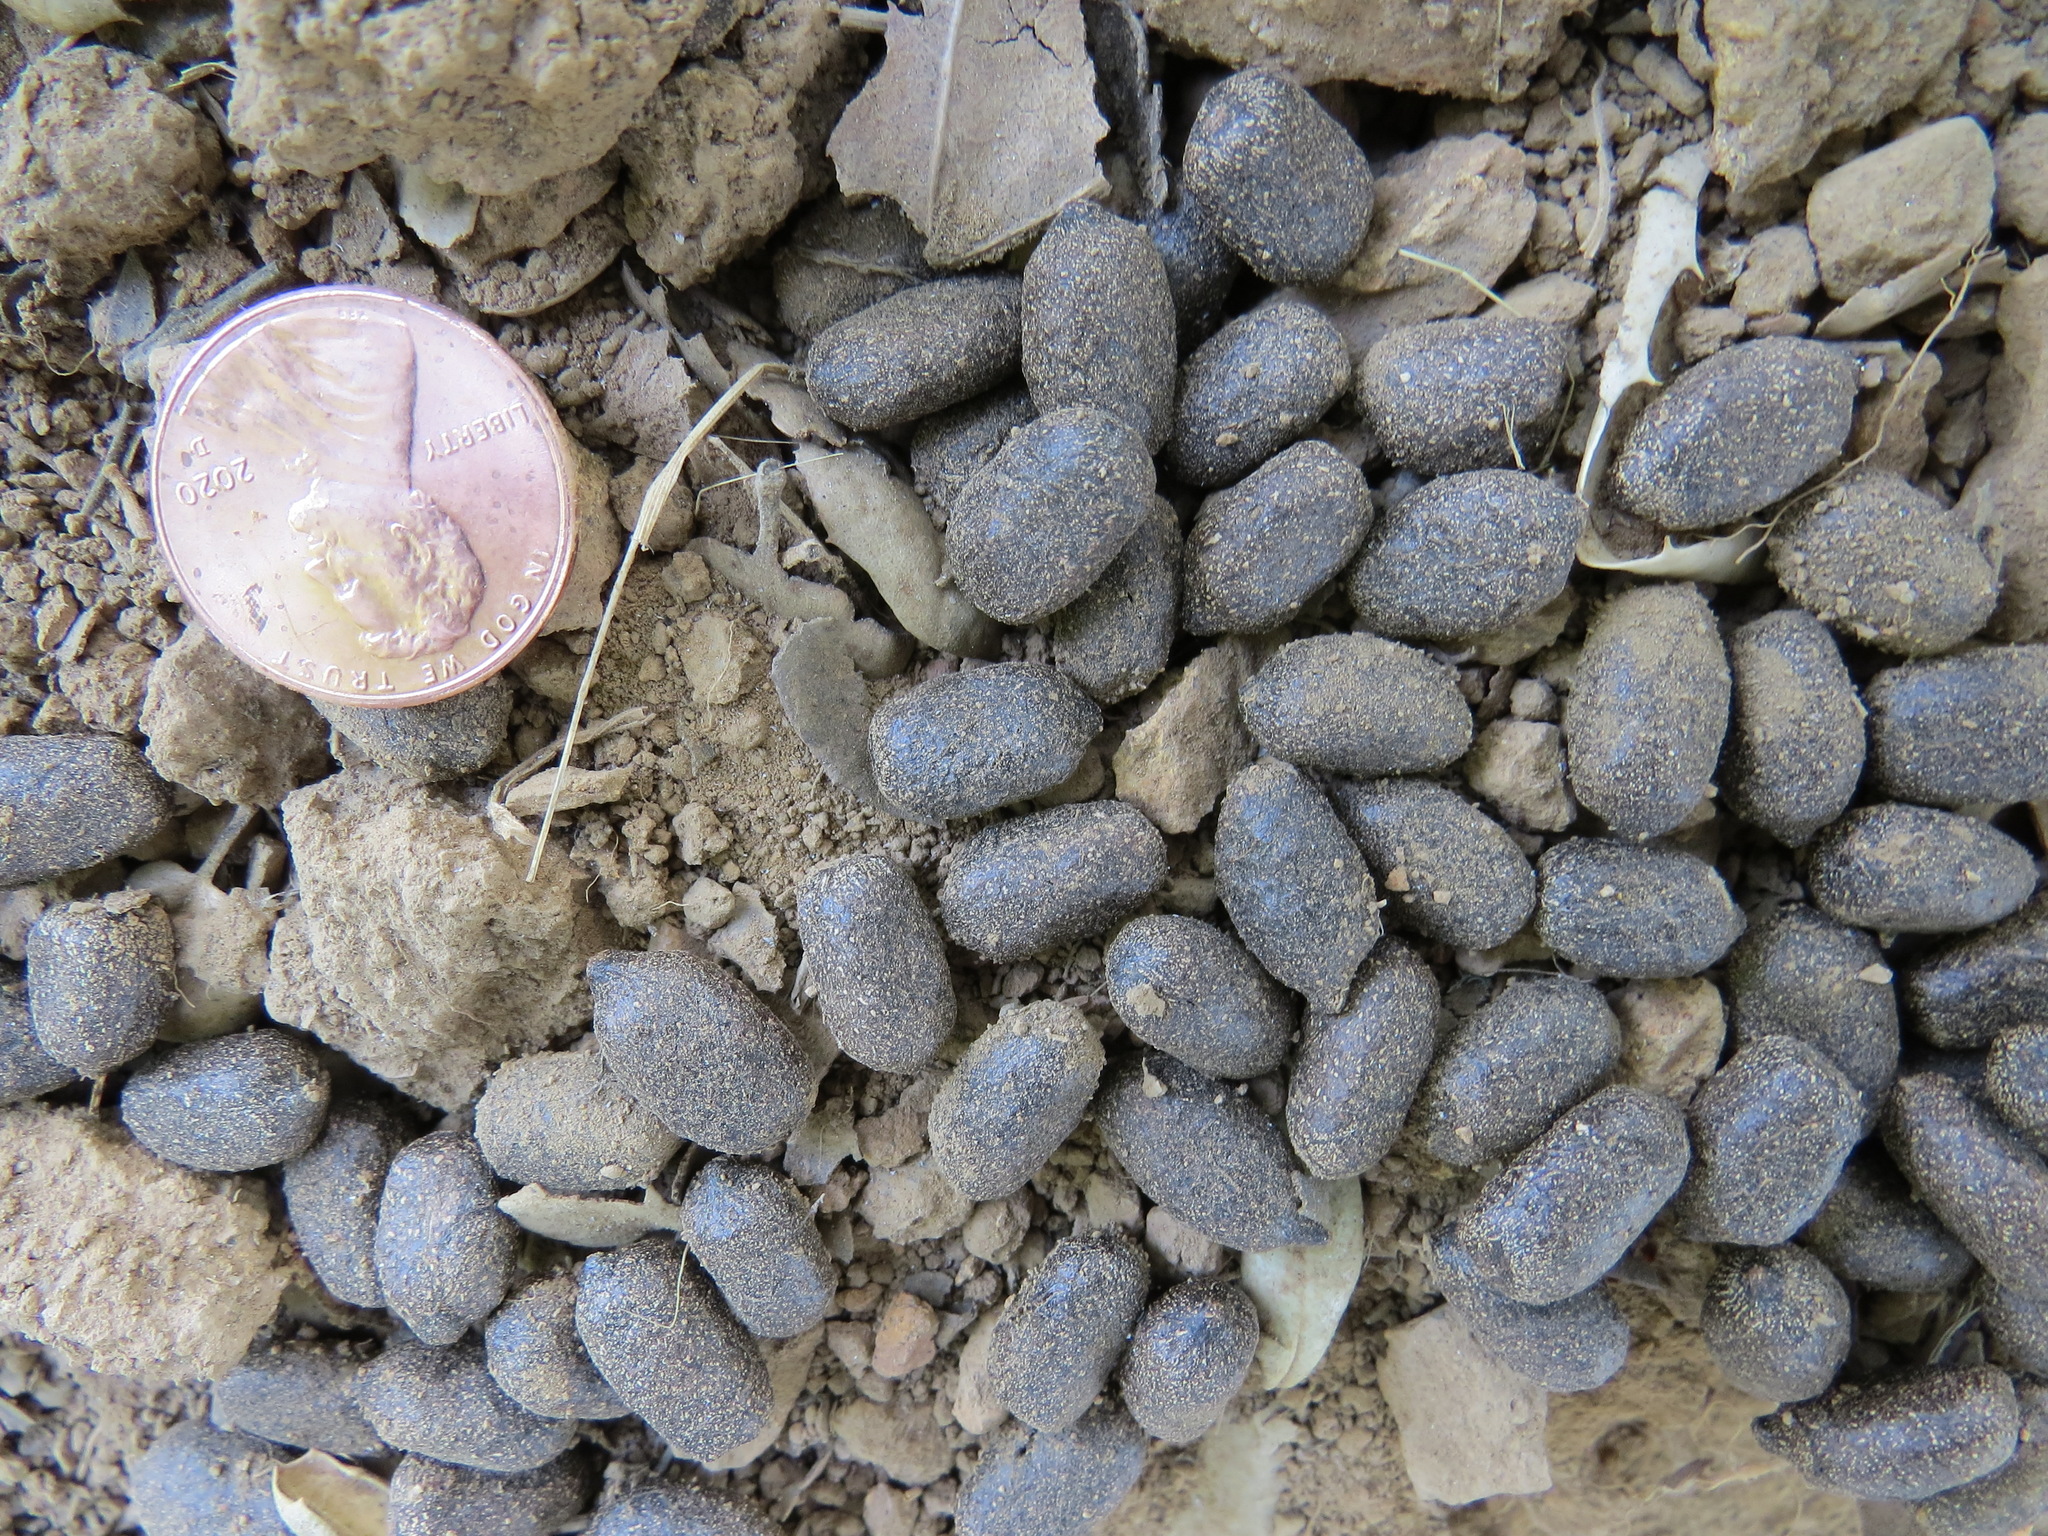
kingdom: Animalia
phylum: Chordata
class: Mammalia
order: Artiodactyla
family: Cervidae
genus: Odocoileus
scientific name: Odocoileus hemionus
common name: Mule deer
